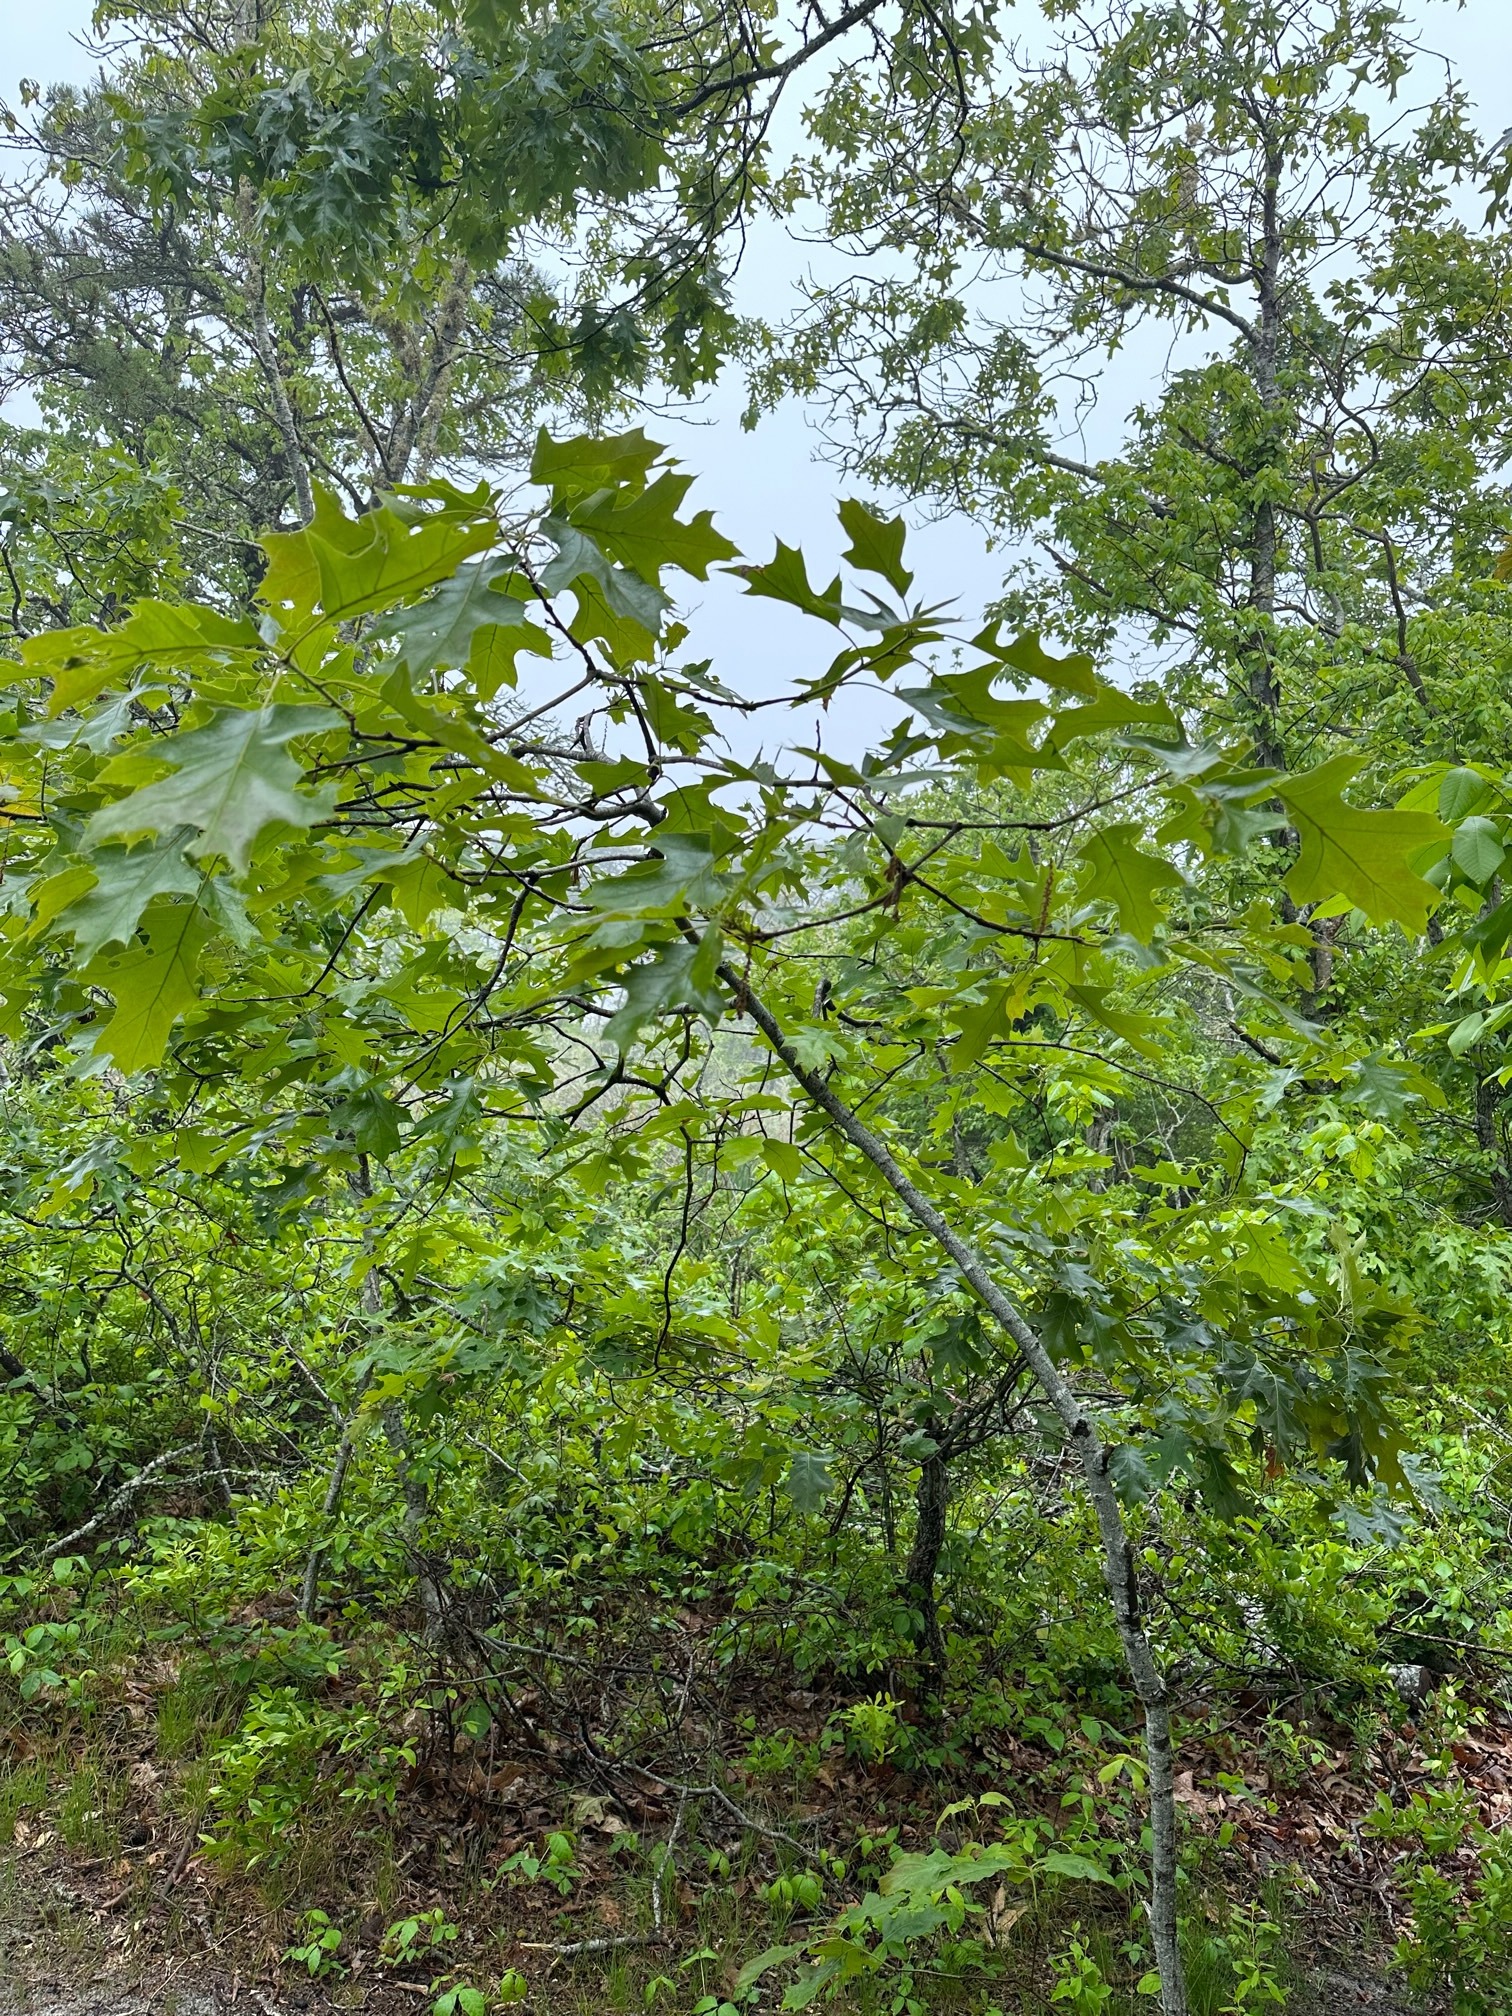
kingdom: Plantae
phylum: Tracheophyta
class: Magnoliopsida
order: Fagales
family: Fagaceae
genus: Quercus
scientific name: Quercus velutina
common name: Black oak
